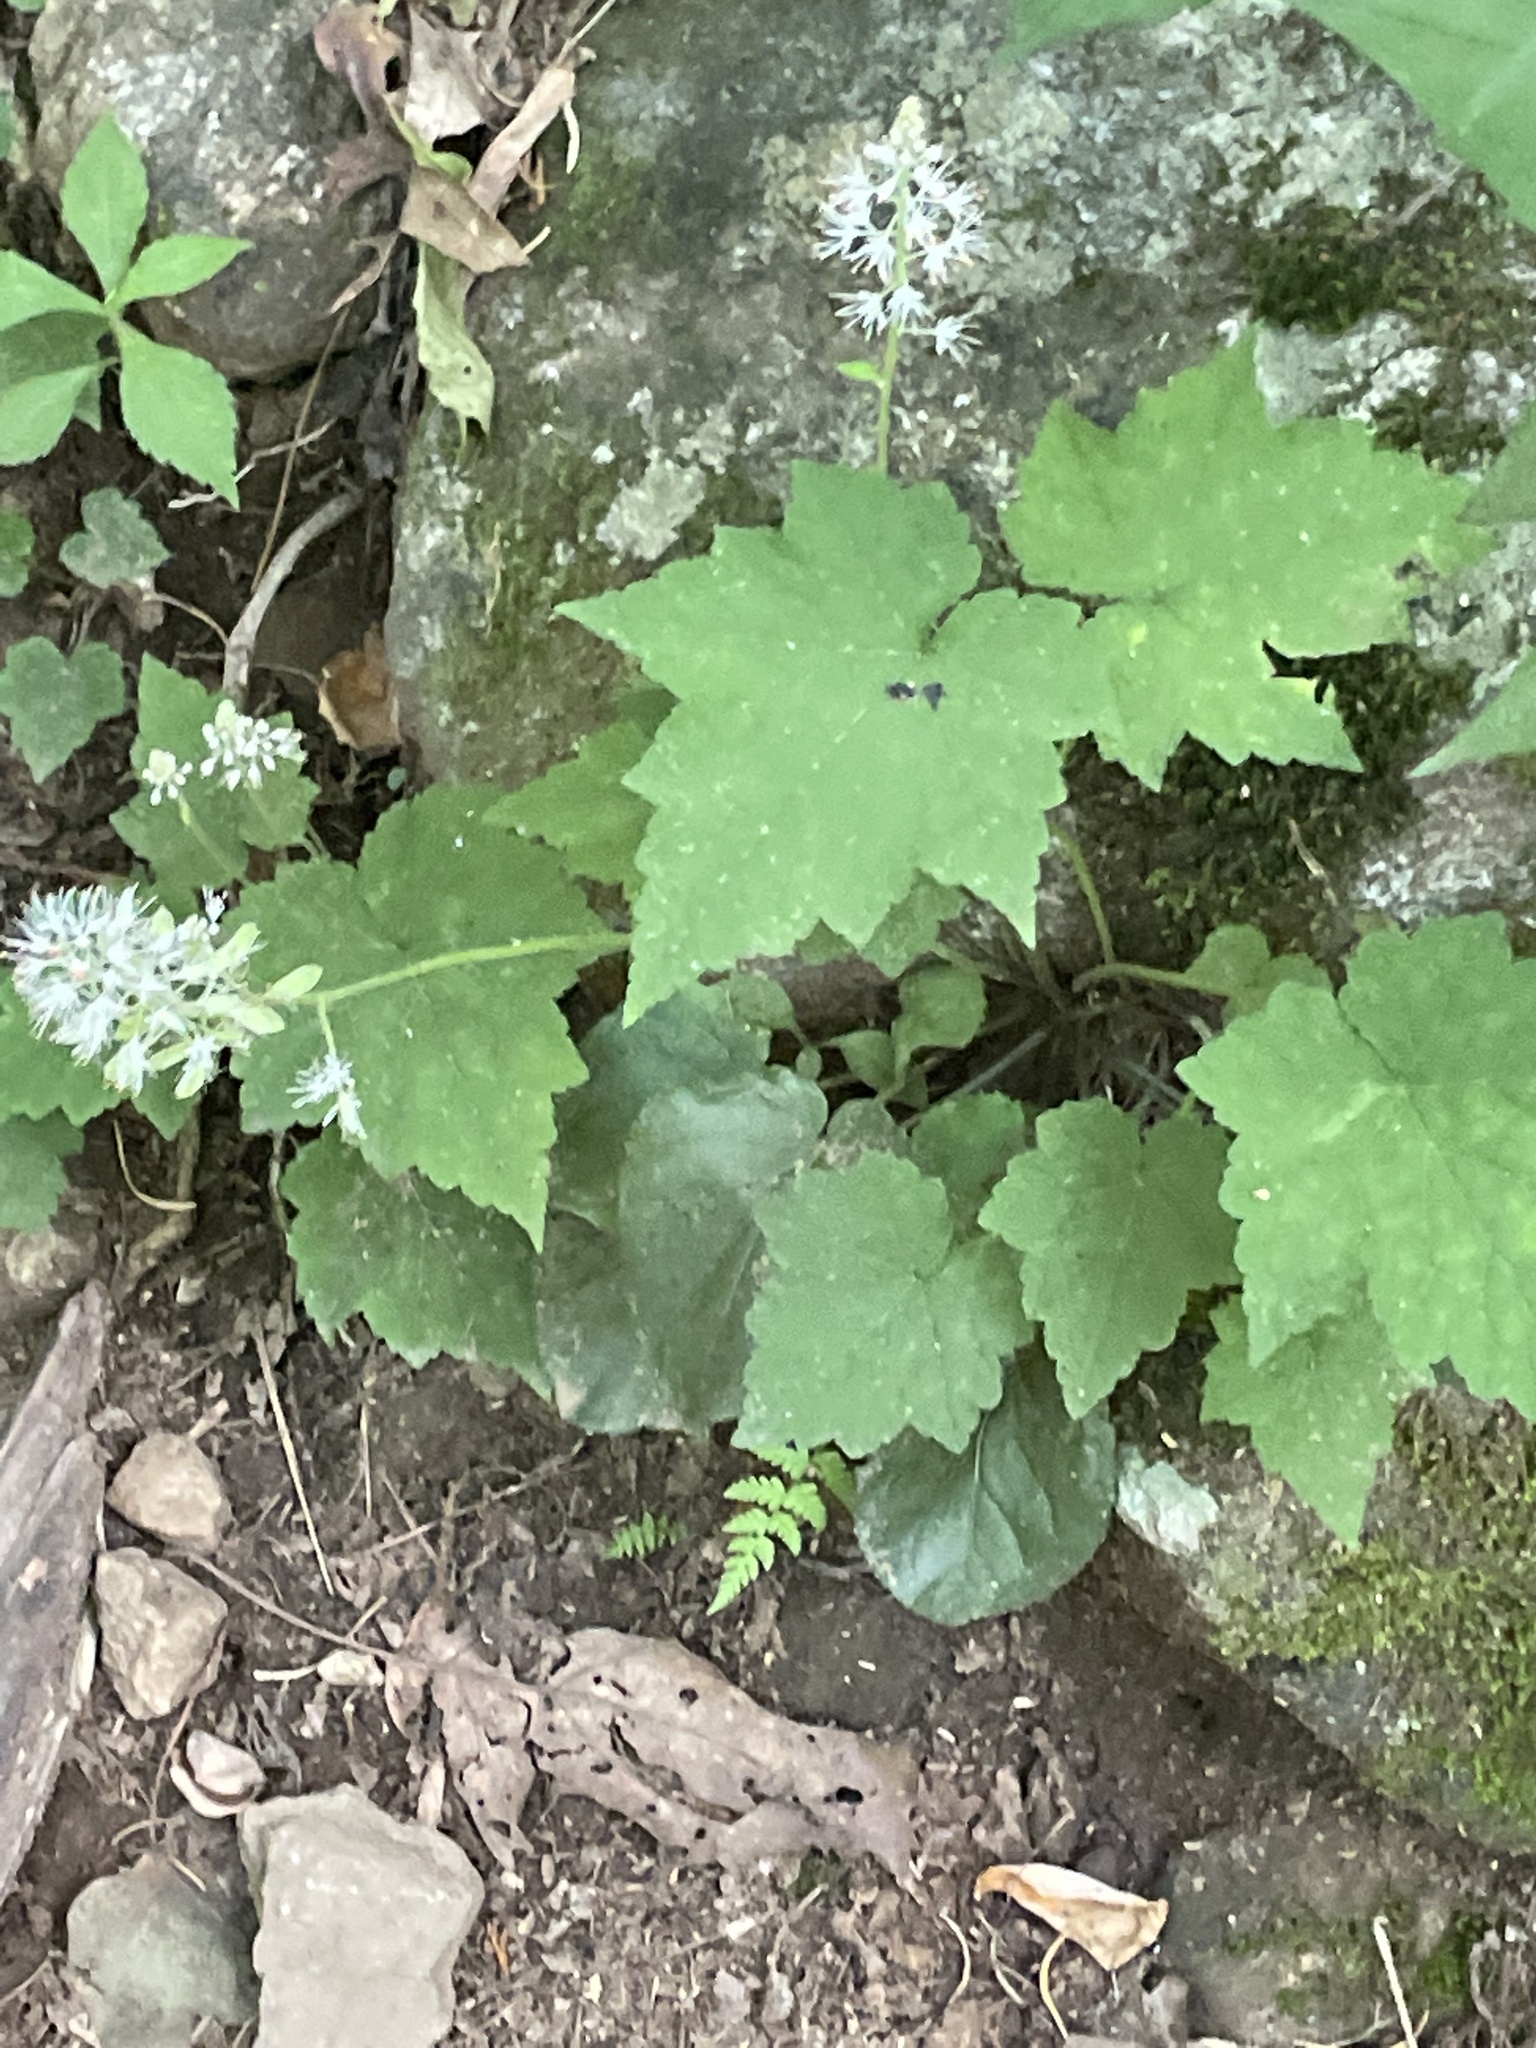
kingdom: Plantae
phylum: Tracheophyta
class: Magnoliopsida
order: Saxifragales
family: Saxifragaceae
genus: Tiarella
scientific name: Tiarella nautila
